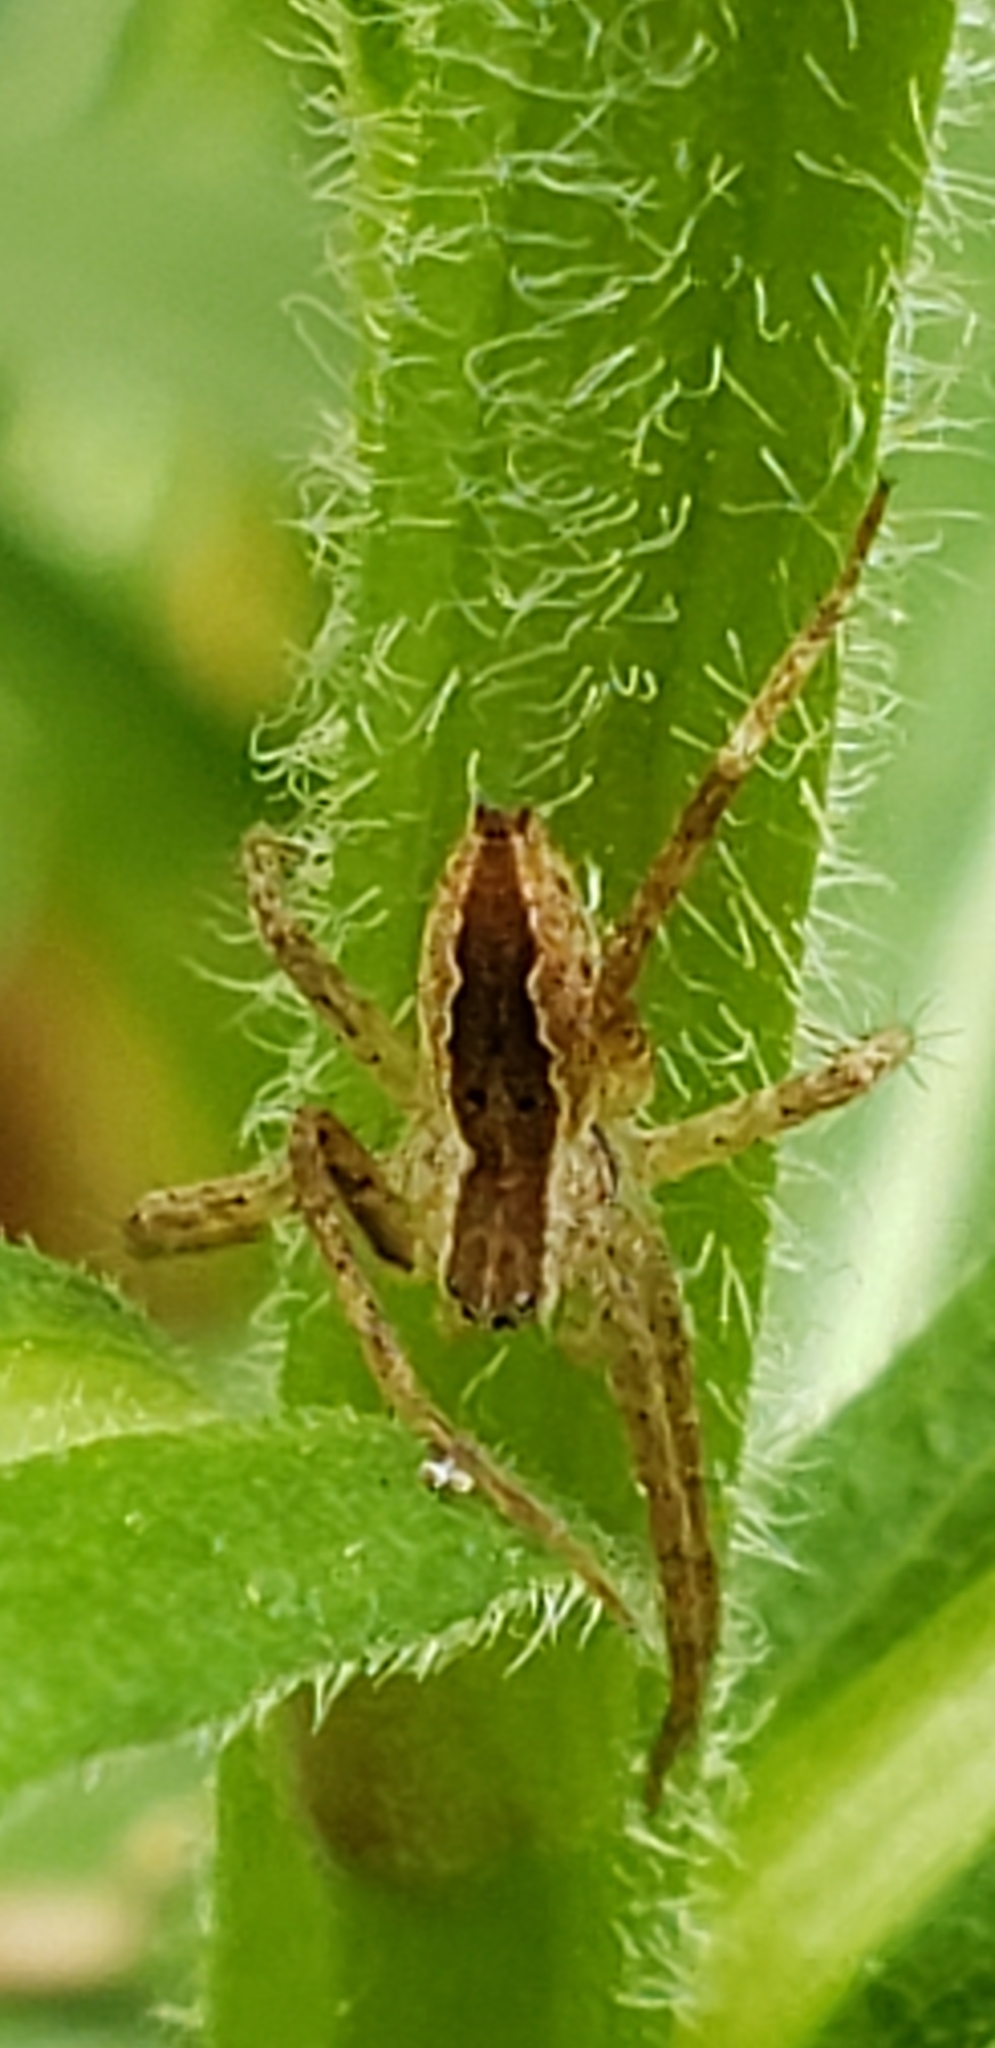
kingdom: Animalia
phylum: Arthropoda
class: Arachnida
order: Araneae
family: Pisauridae
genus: Pisaurina
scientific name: Pisaurina mira
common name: American nursery web spider
